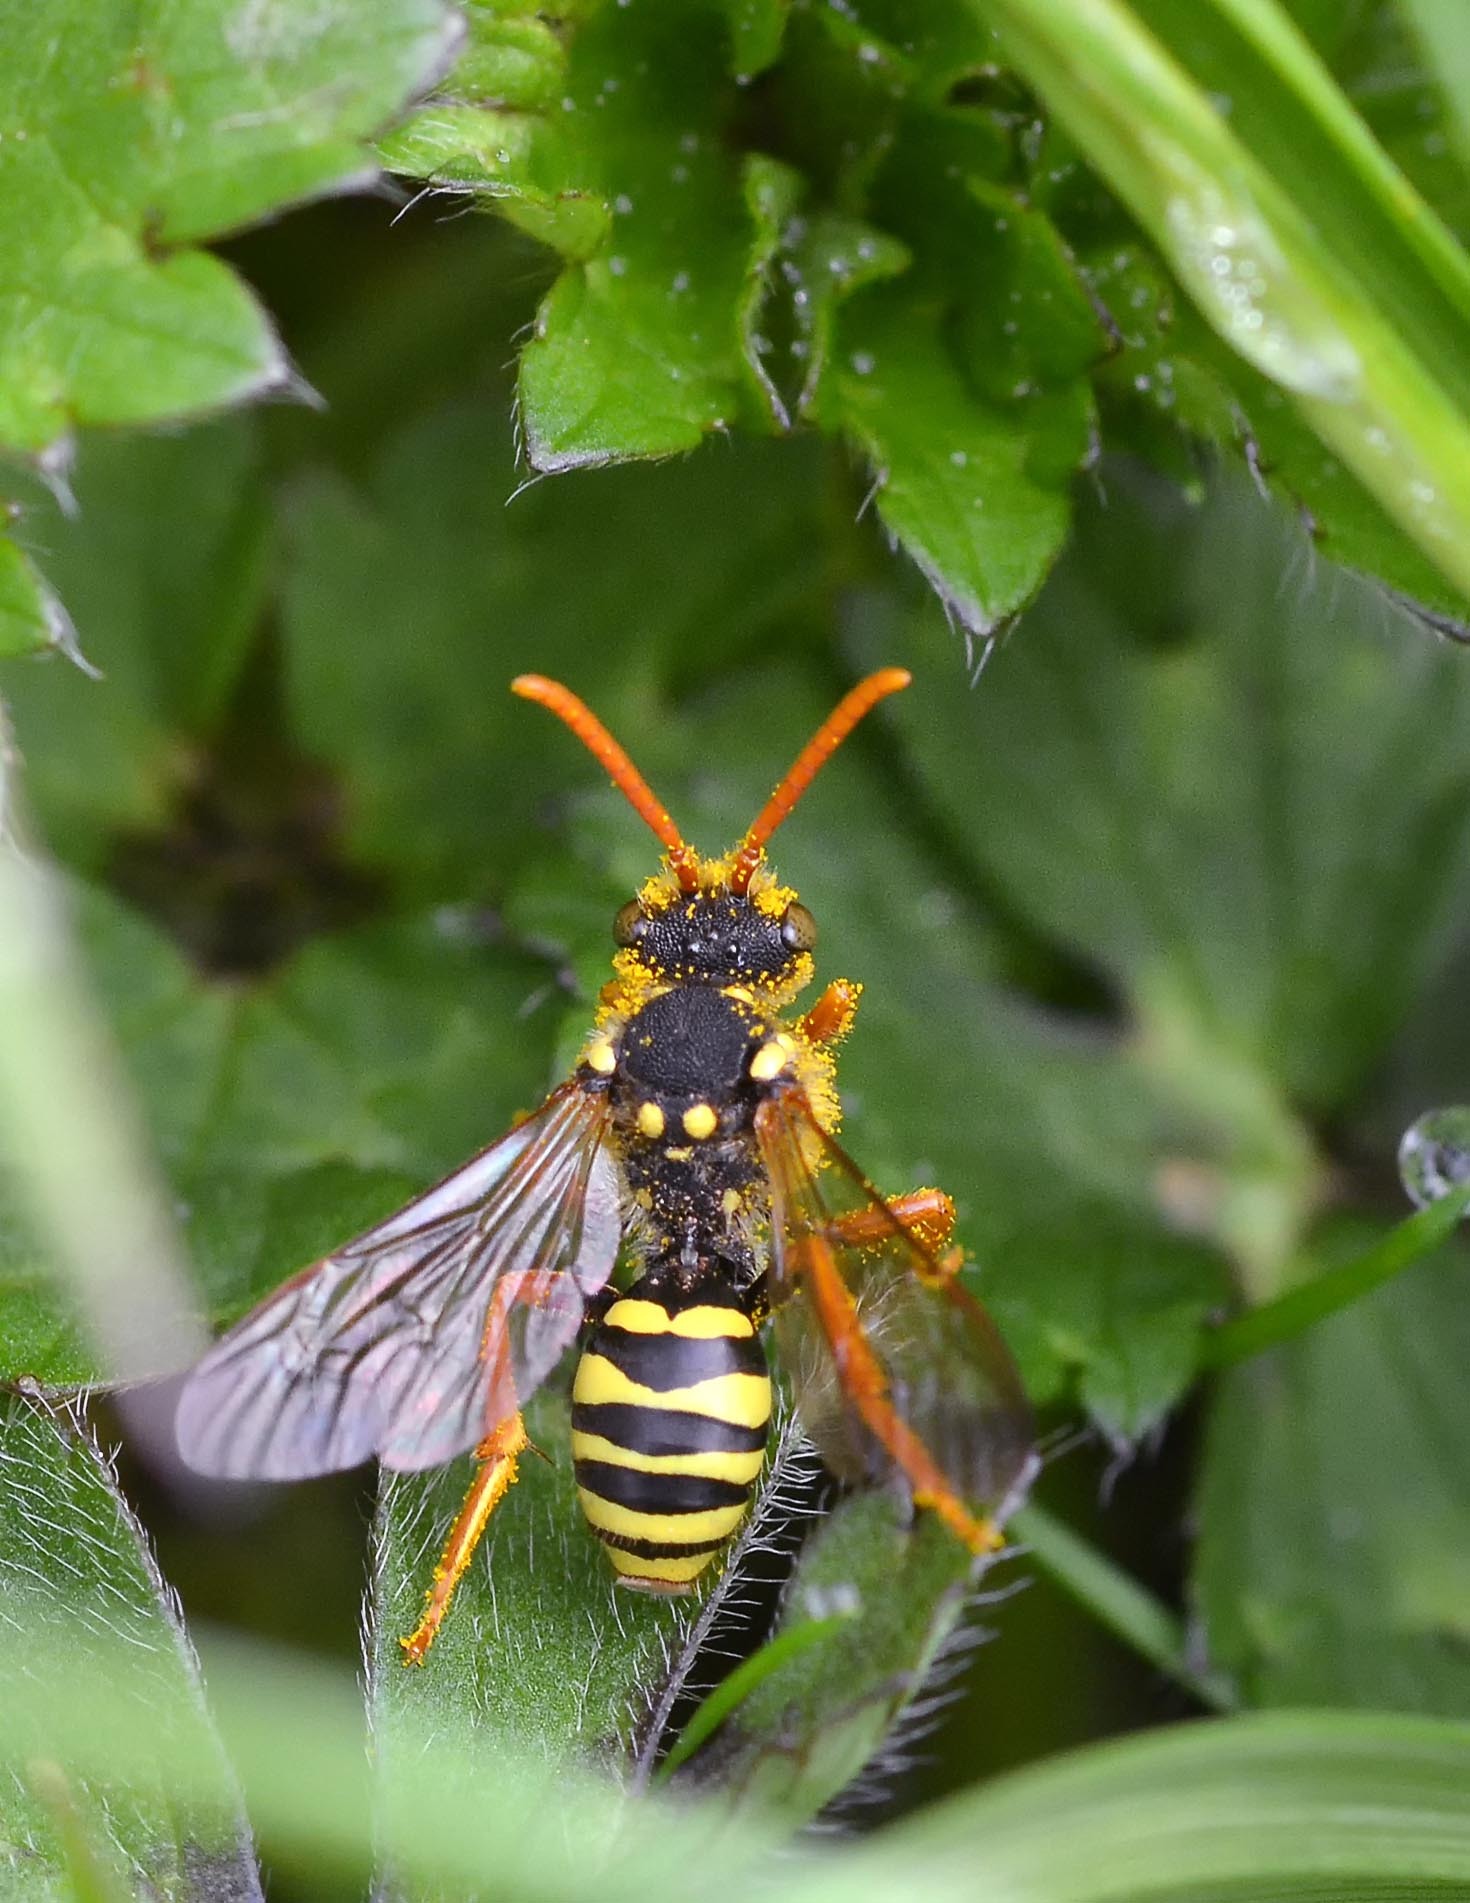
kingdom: Animalia
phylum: Arthropoda
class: Insecta
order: Hymenoptera
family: Apidae
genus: Nomada
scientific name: Nomada goodeniana
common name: Gooden's nomad bee
